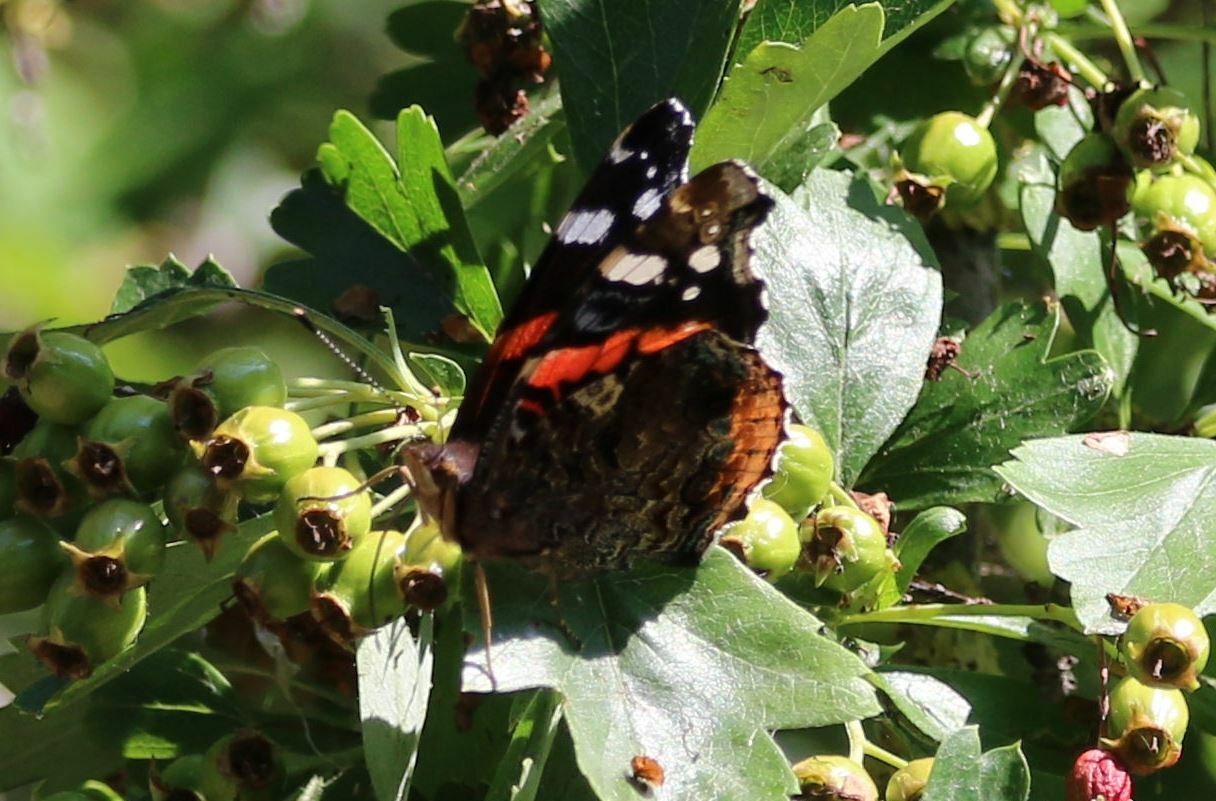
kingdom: Animalia
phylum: Arthropoda
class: Insecta
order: Lepidoptera
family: Nymphalidae
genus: Vanessa
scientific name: Vanessa atalanta
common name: Red admiral
